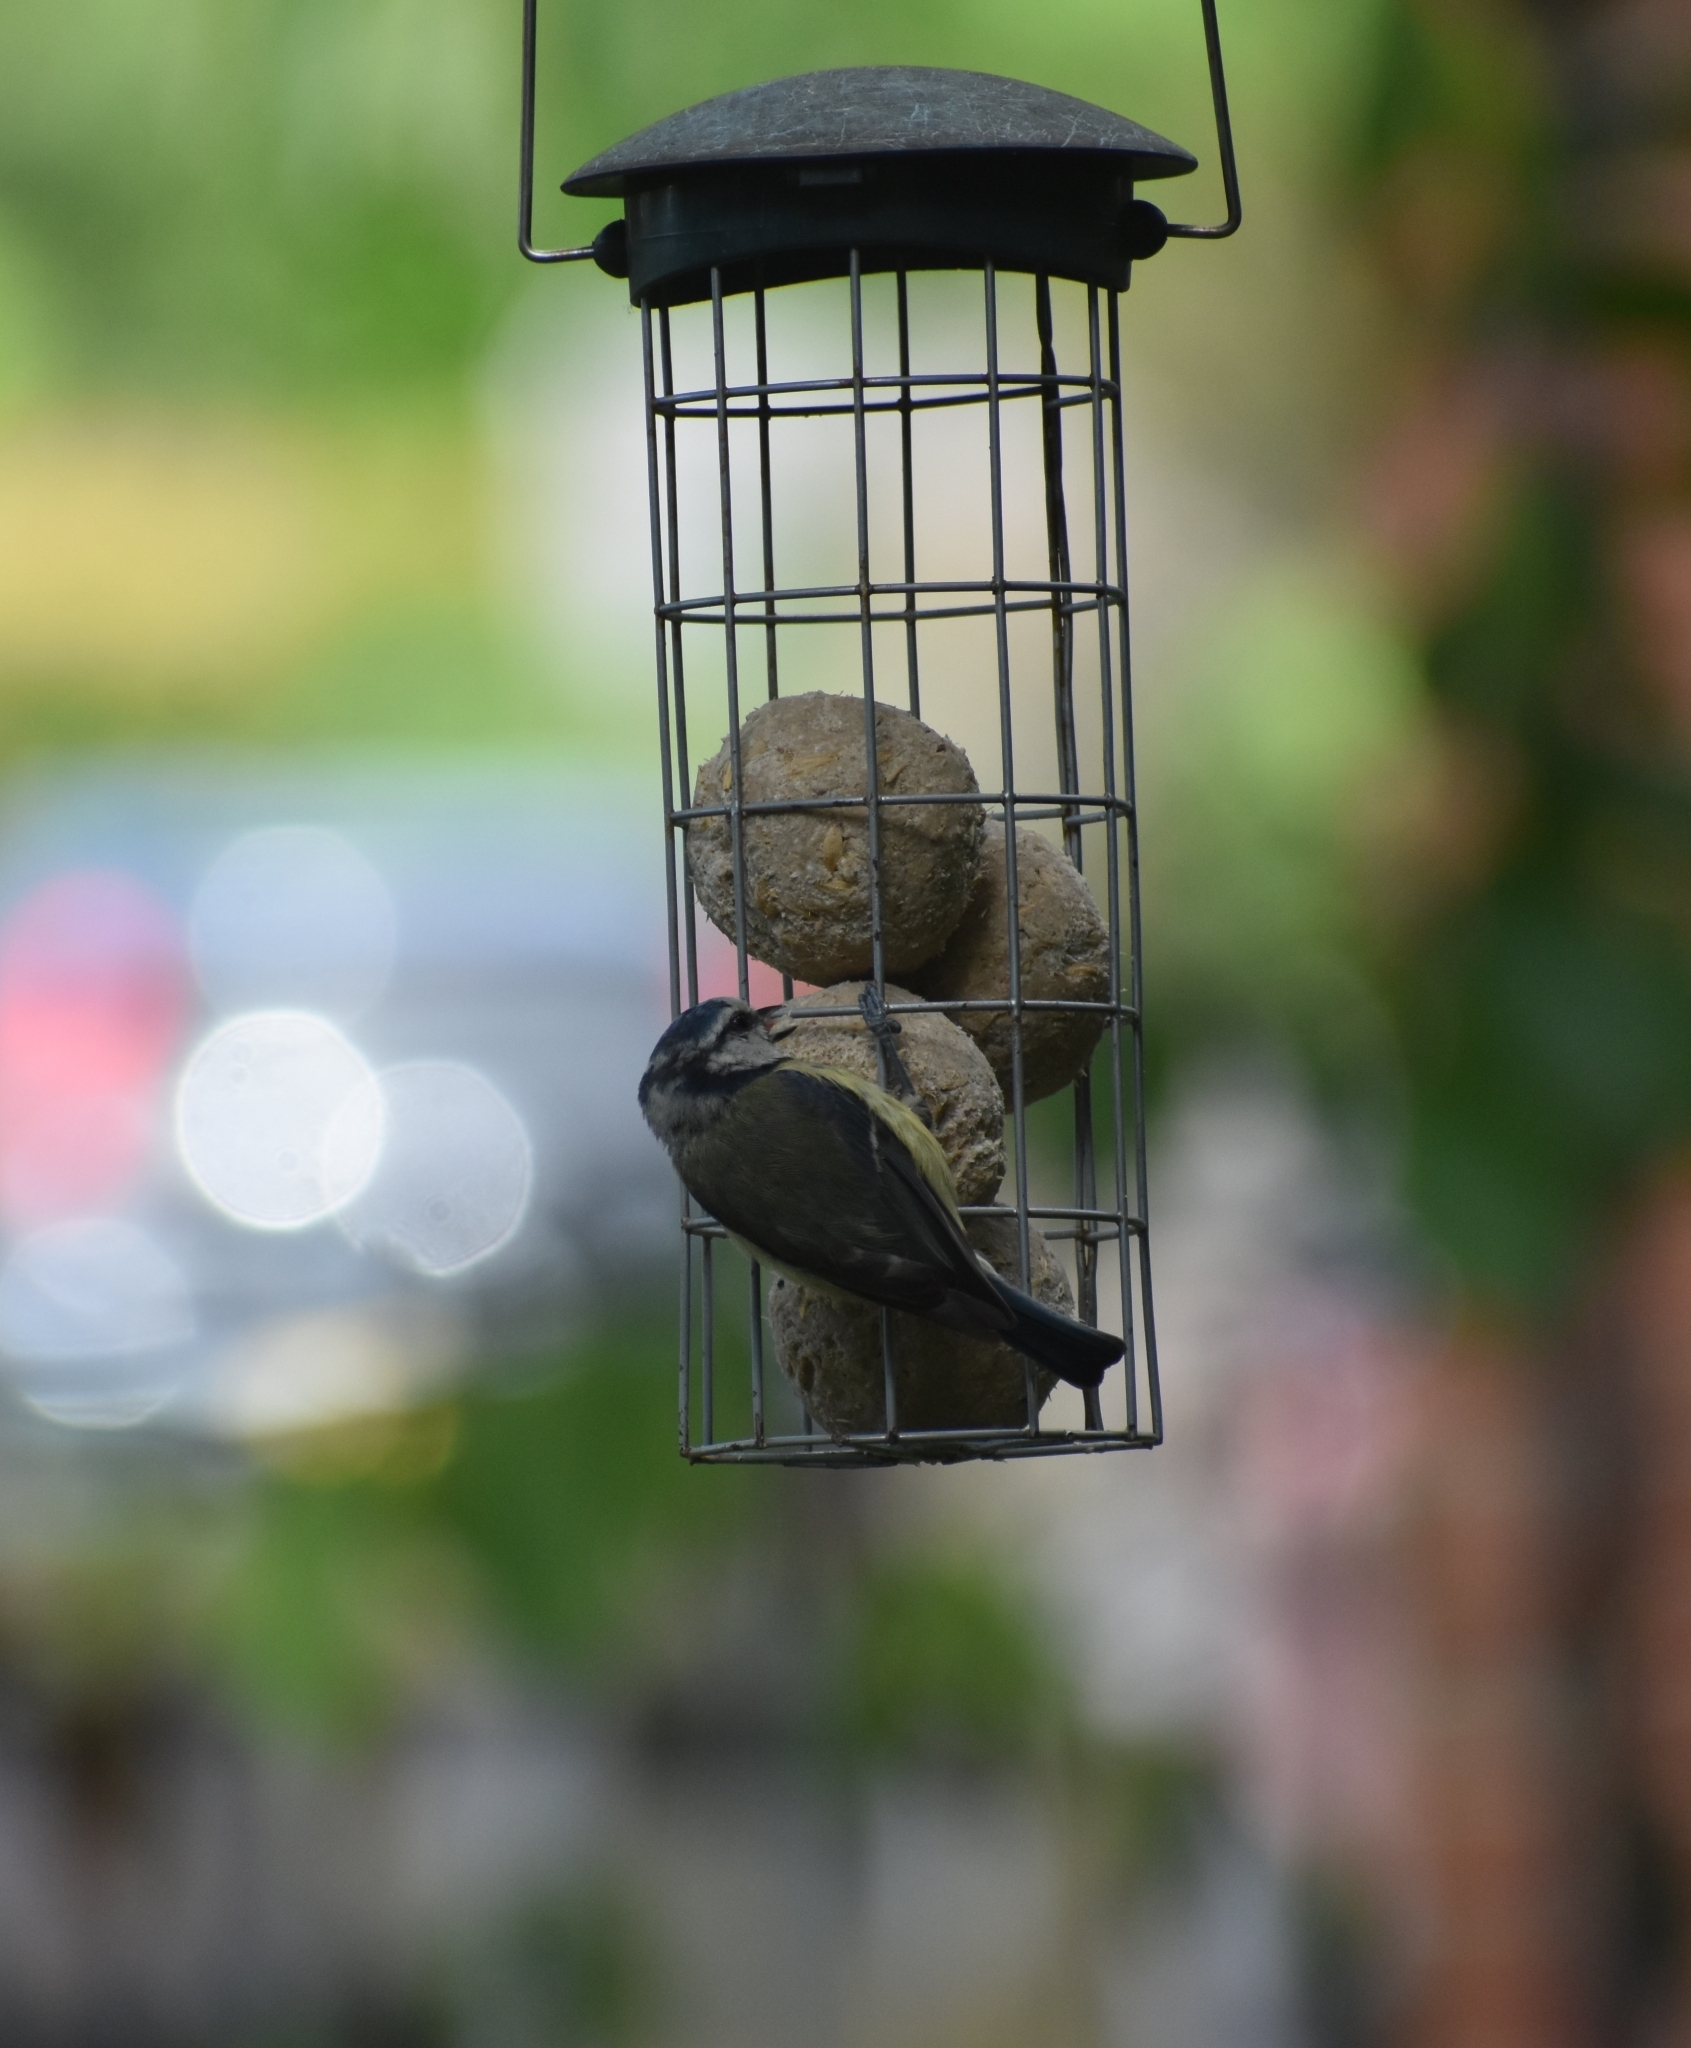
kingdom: Animalia
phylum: Chordata
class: Aves
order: Passeriformes
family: Paridae
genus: Cyanistes
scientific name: Cyanistes caeruleus
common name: Eurasian blue tit
